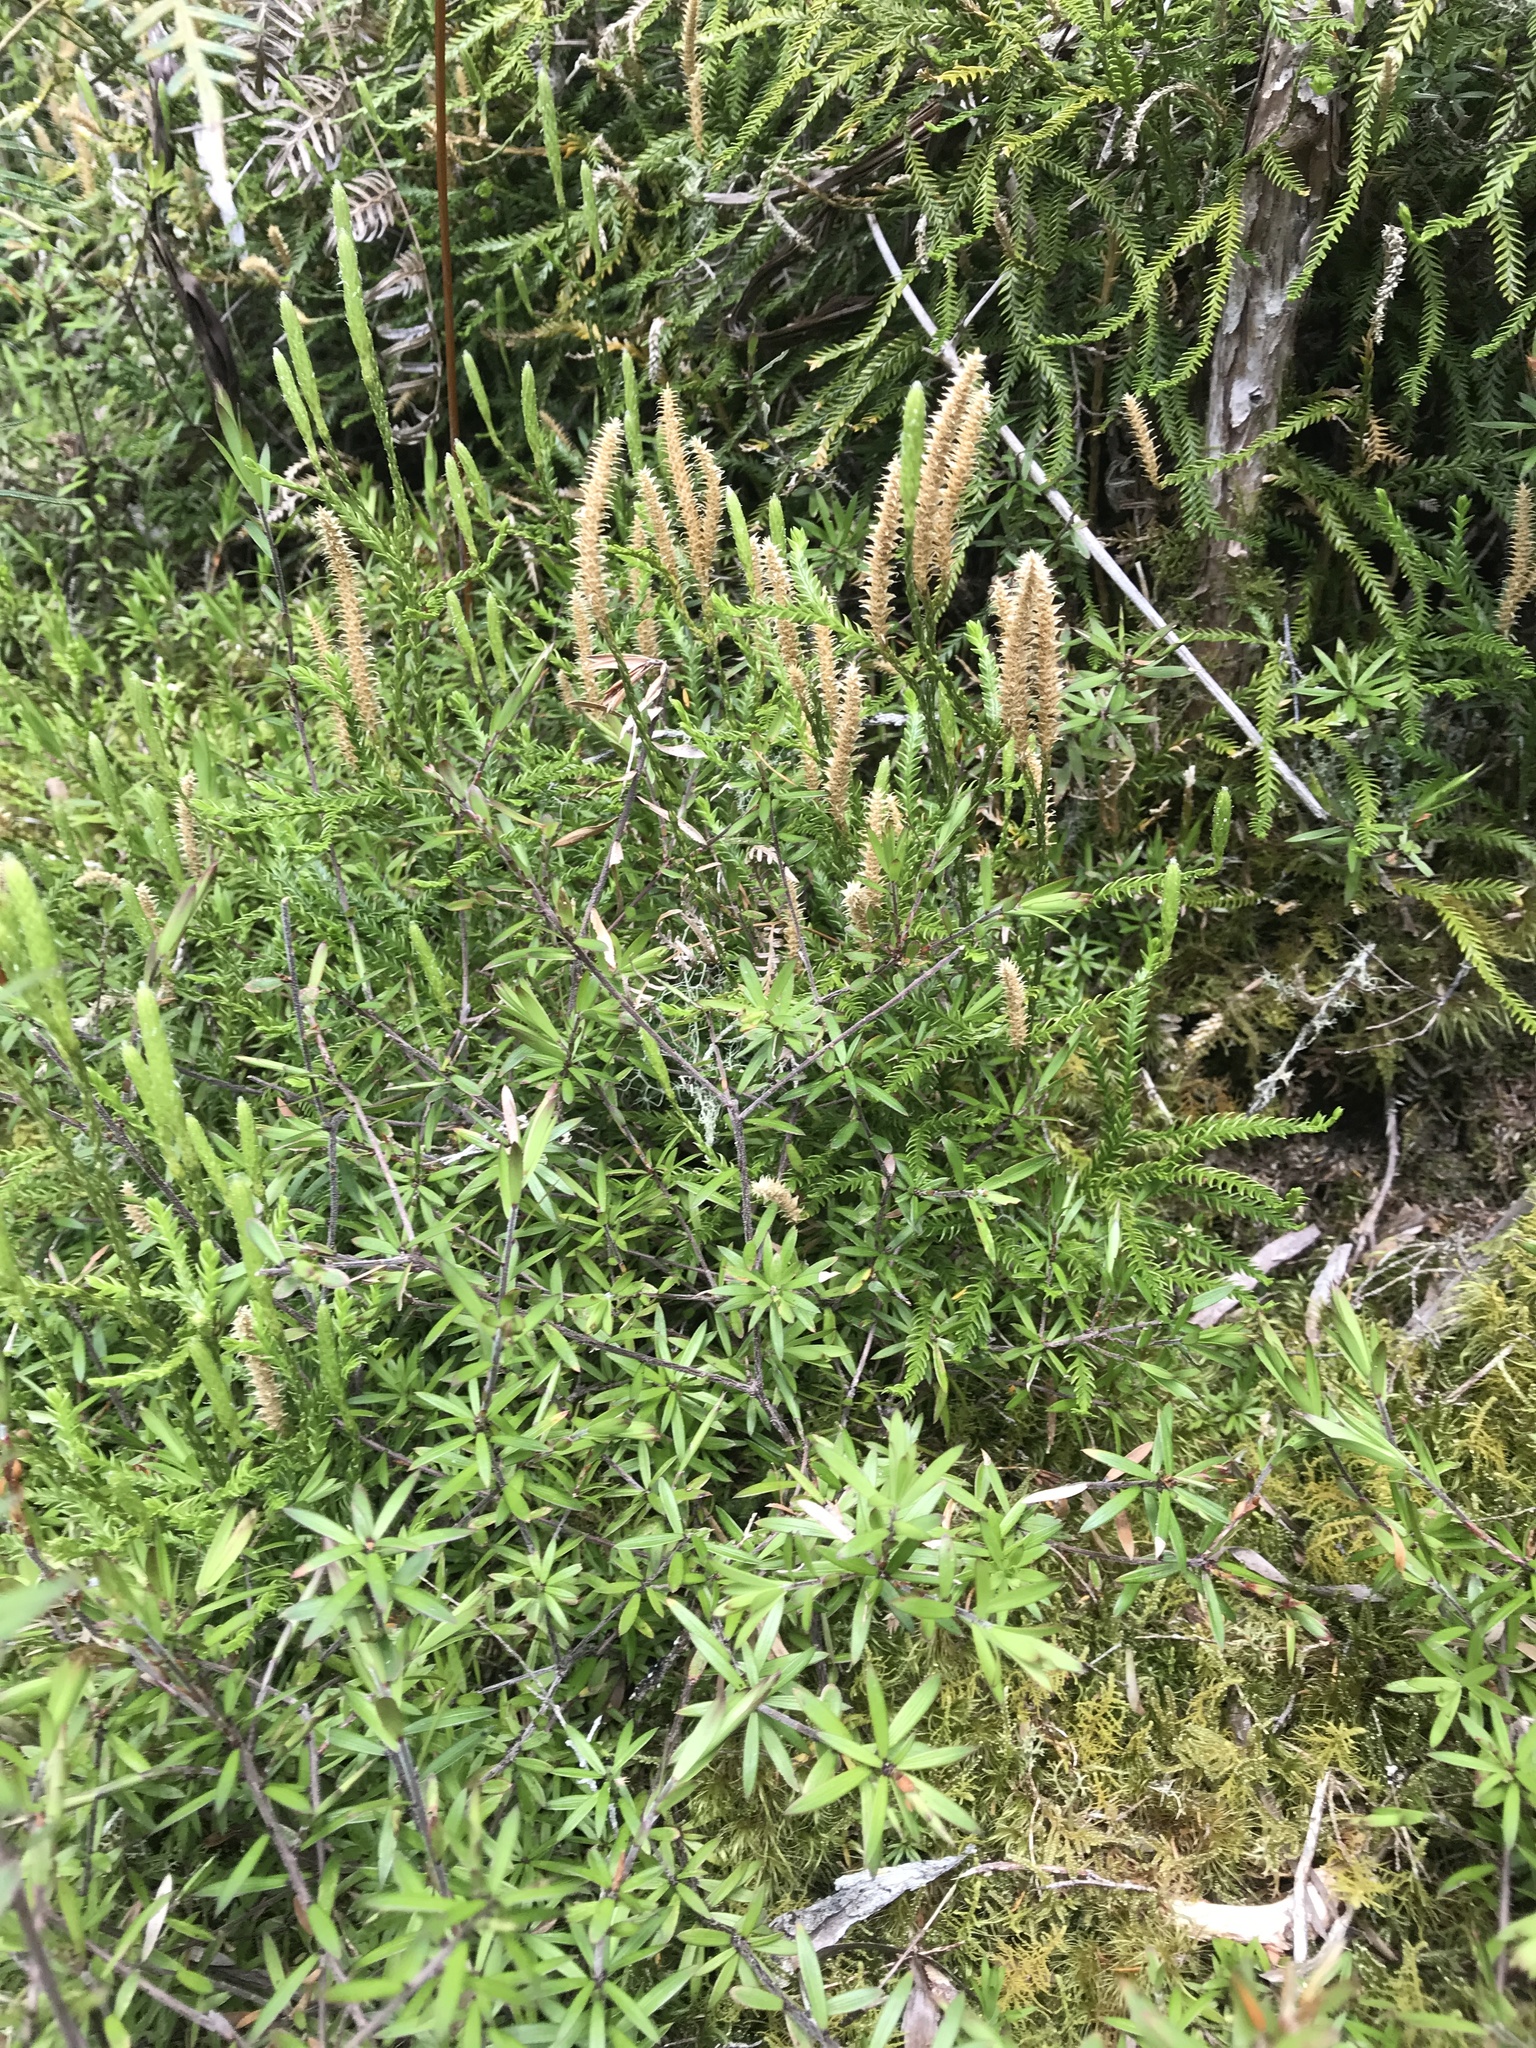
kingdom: Plantae
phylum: Tracheophyta
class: Lycopodiopsida
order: Lycopodiales
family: Lycopodiaceae
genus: Diphasium
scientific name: Diphasium scariosum
